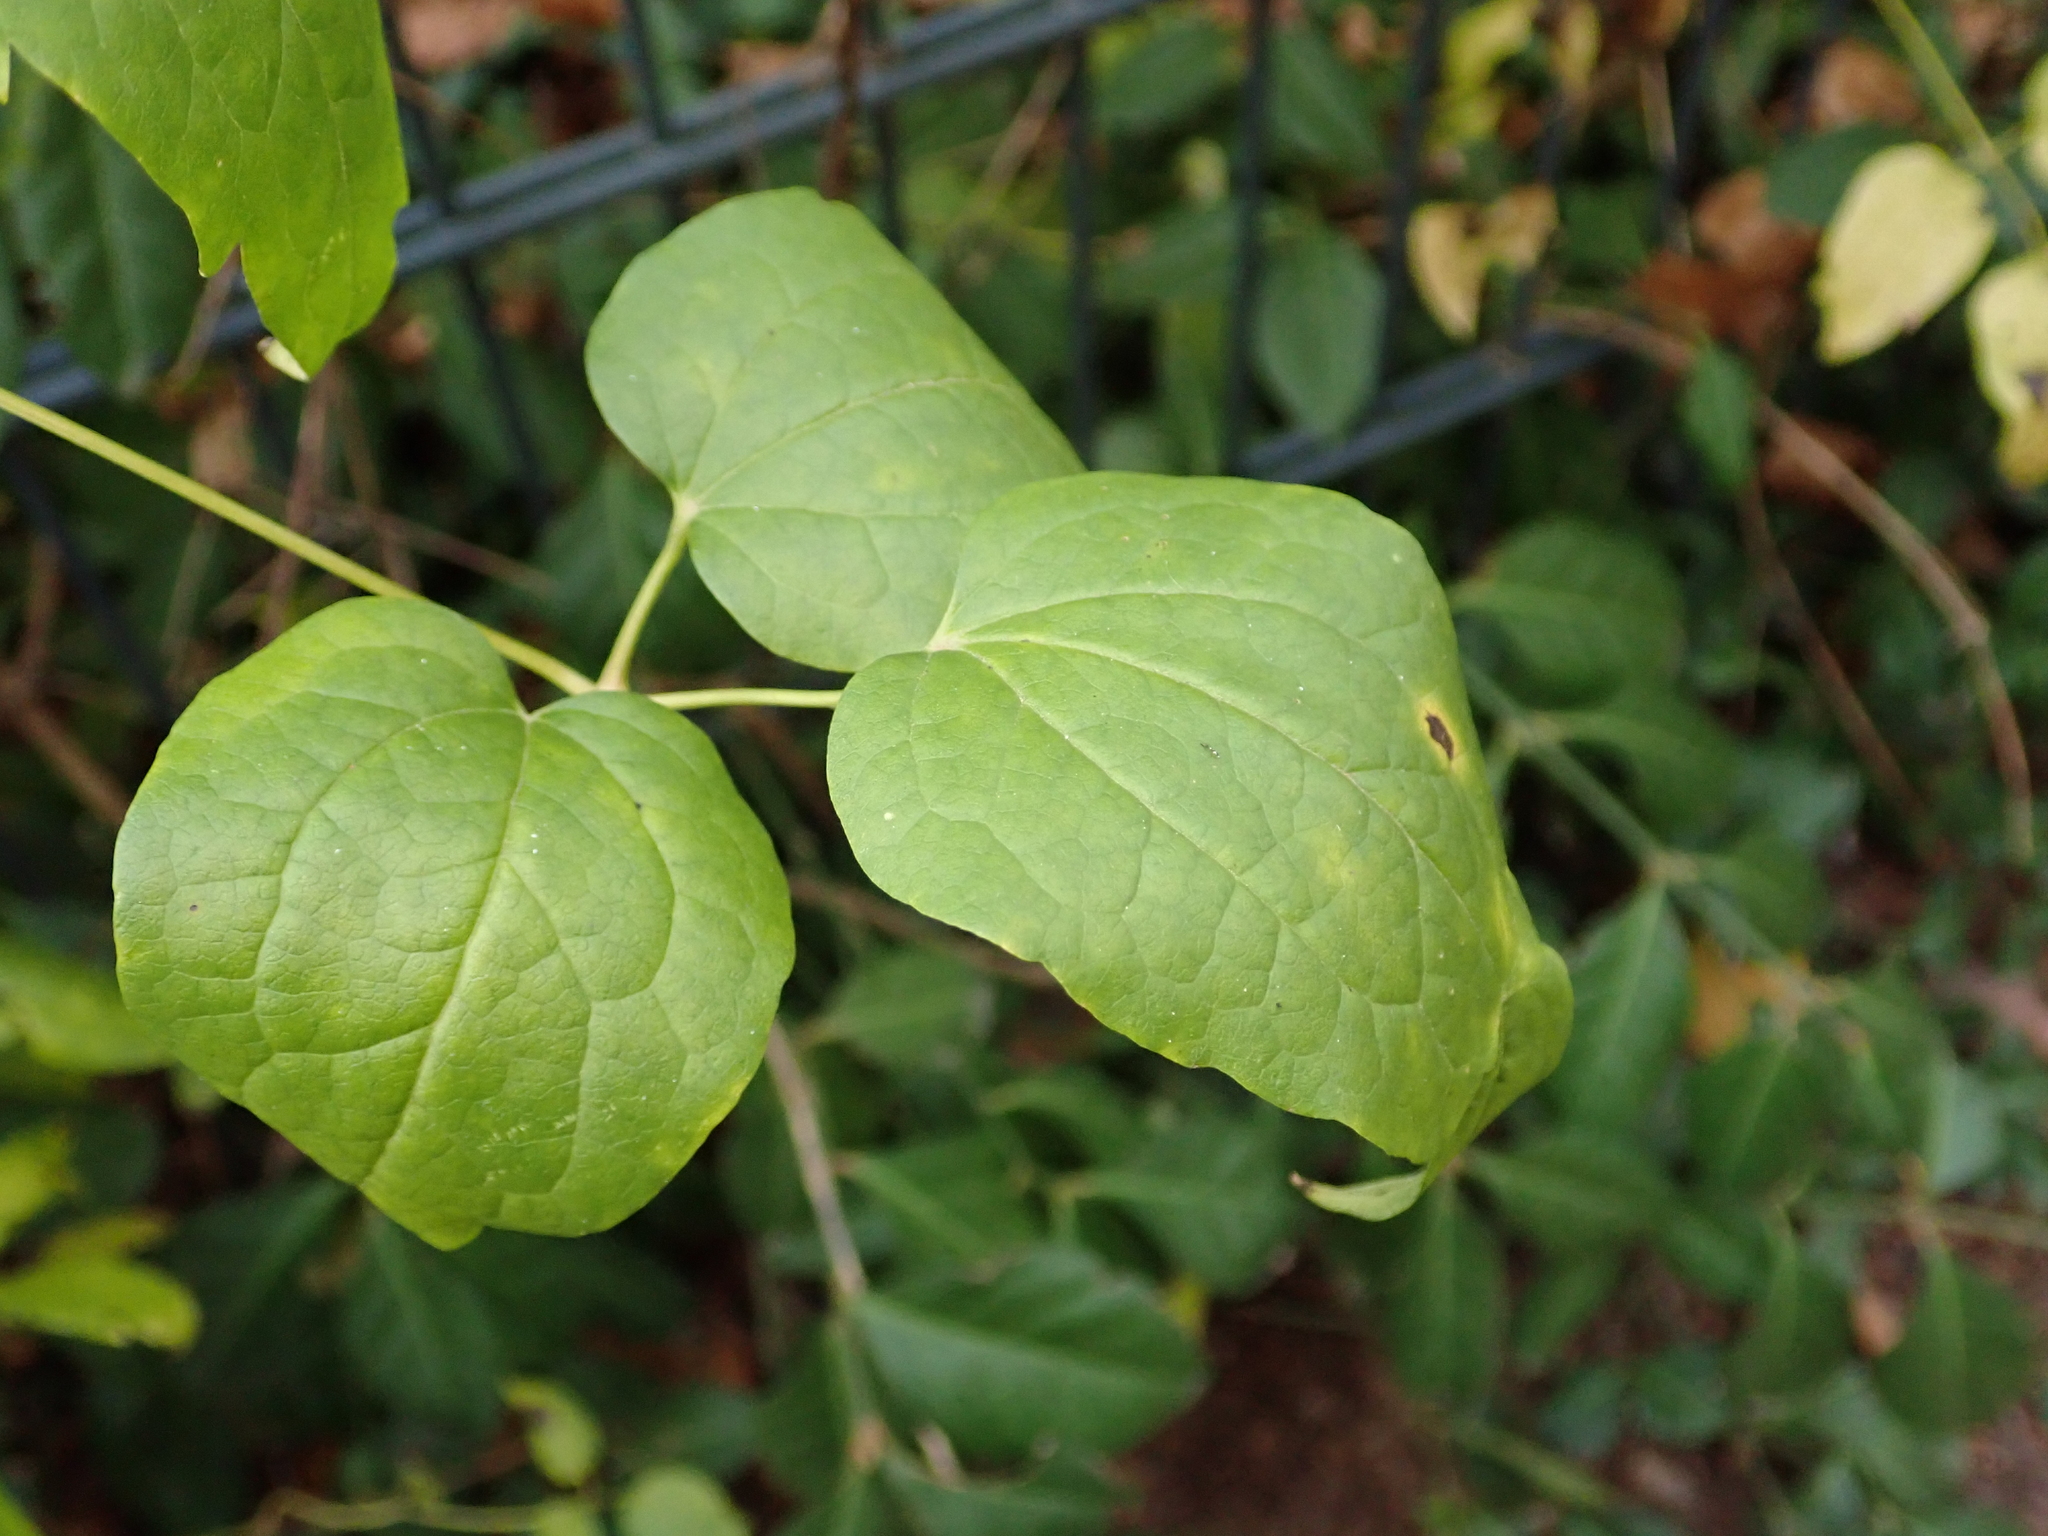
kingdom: Plantae
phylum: Tracheophyta
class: Magnoliopsida
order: Ranunculales
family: Ranunculaceae
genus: Clematis
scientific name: Clematis vitalba
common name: Evergreen clematis
